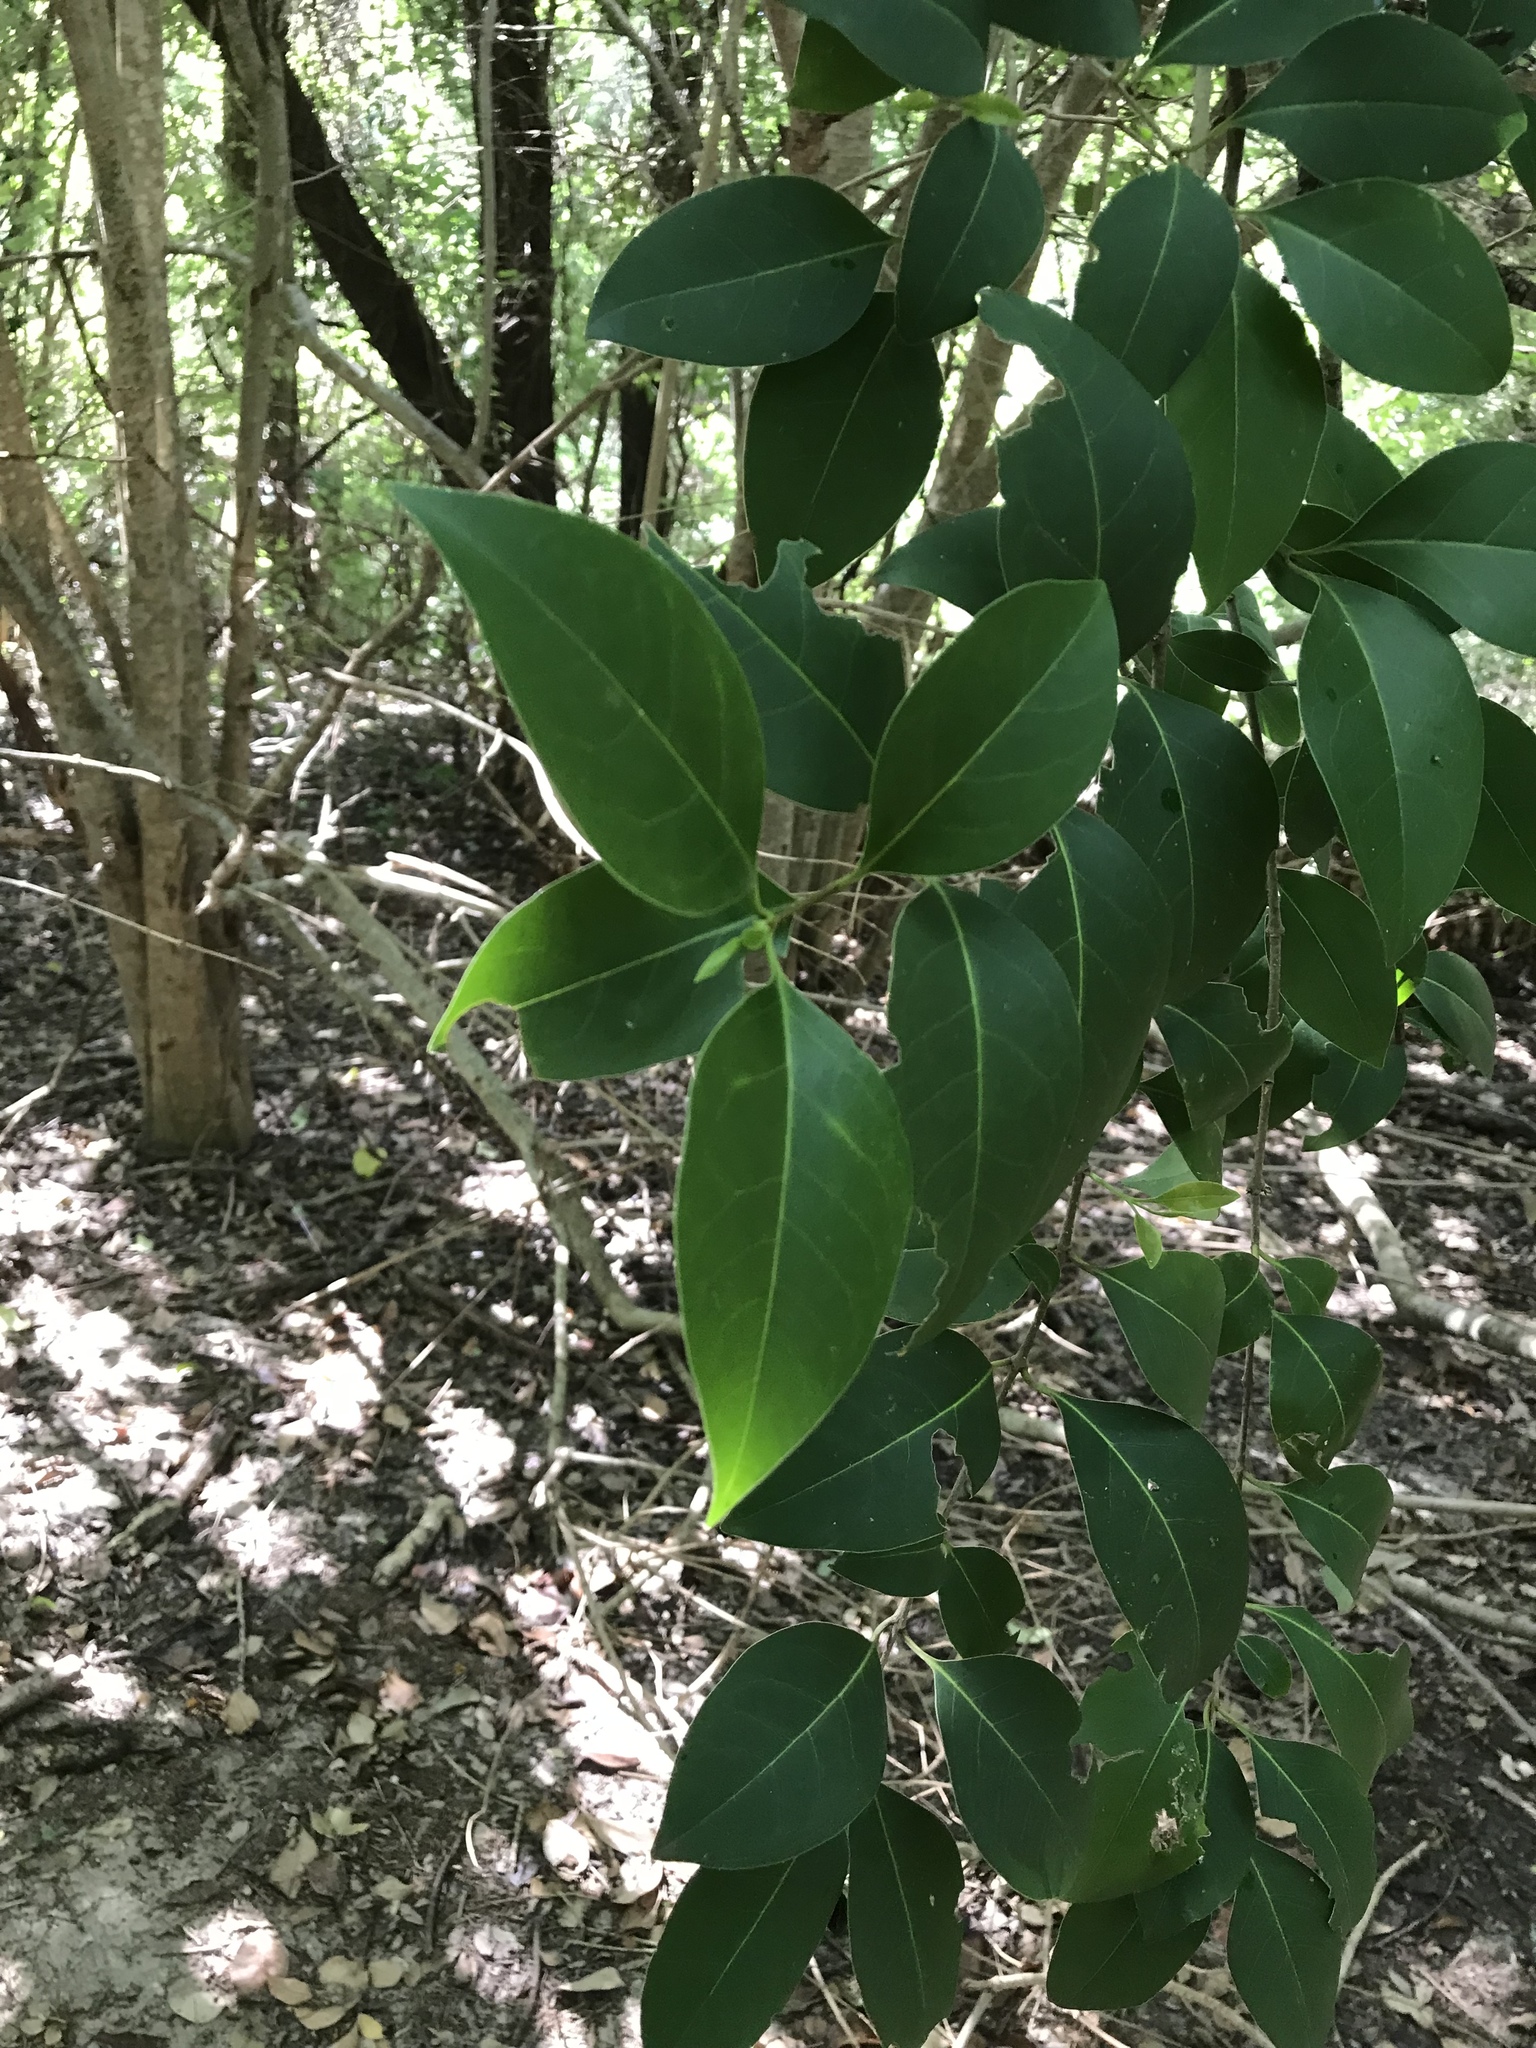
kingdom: Plantae
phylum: Tracheophyta
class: Magnoliopsida
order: Lamiales
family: Oleaceae
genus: Ligustrum
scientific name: Ligustrum lucidum
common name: Glossy privet
